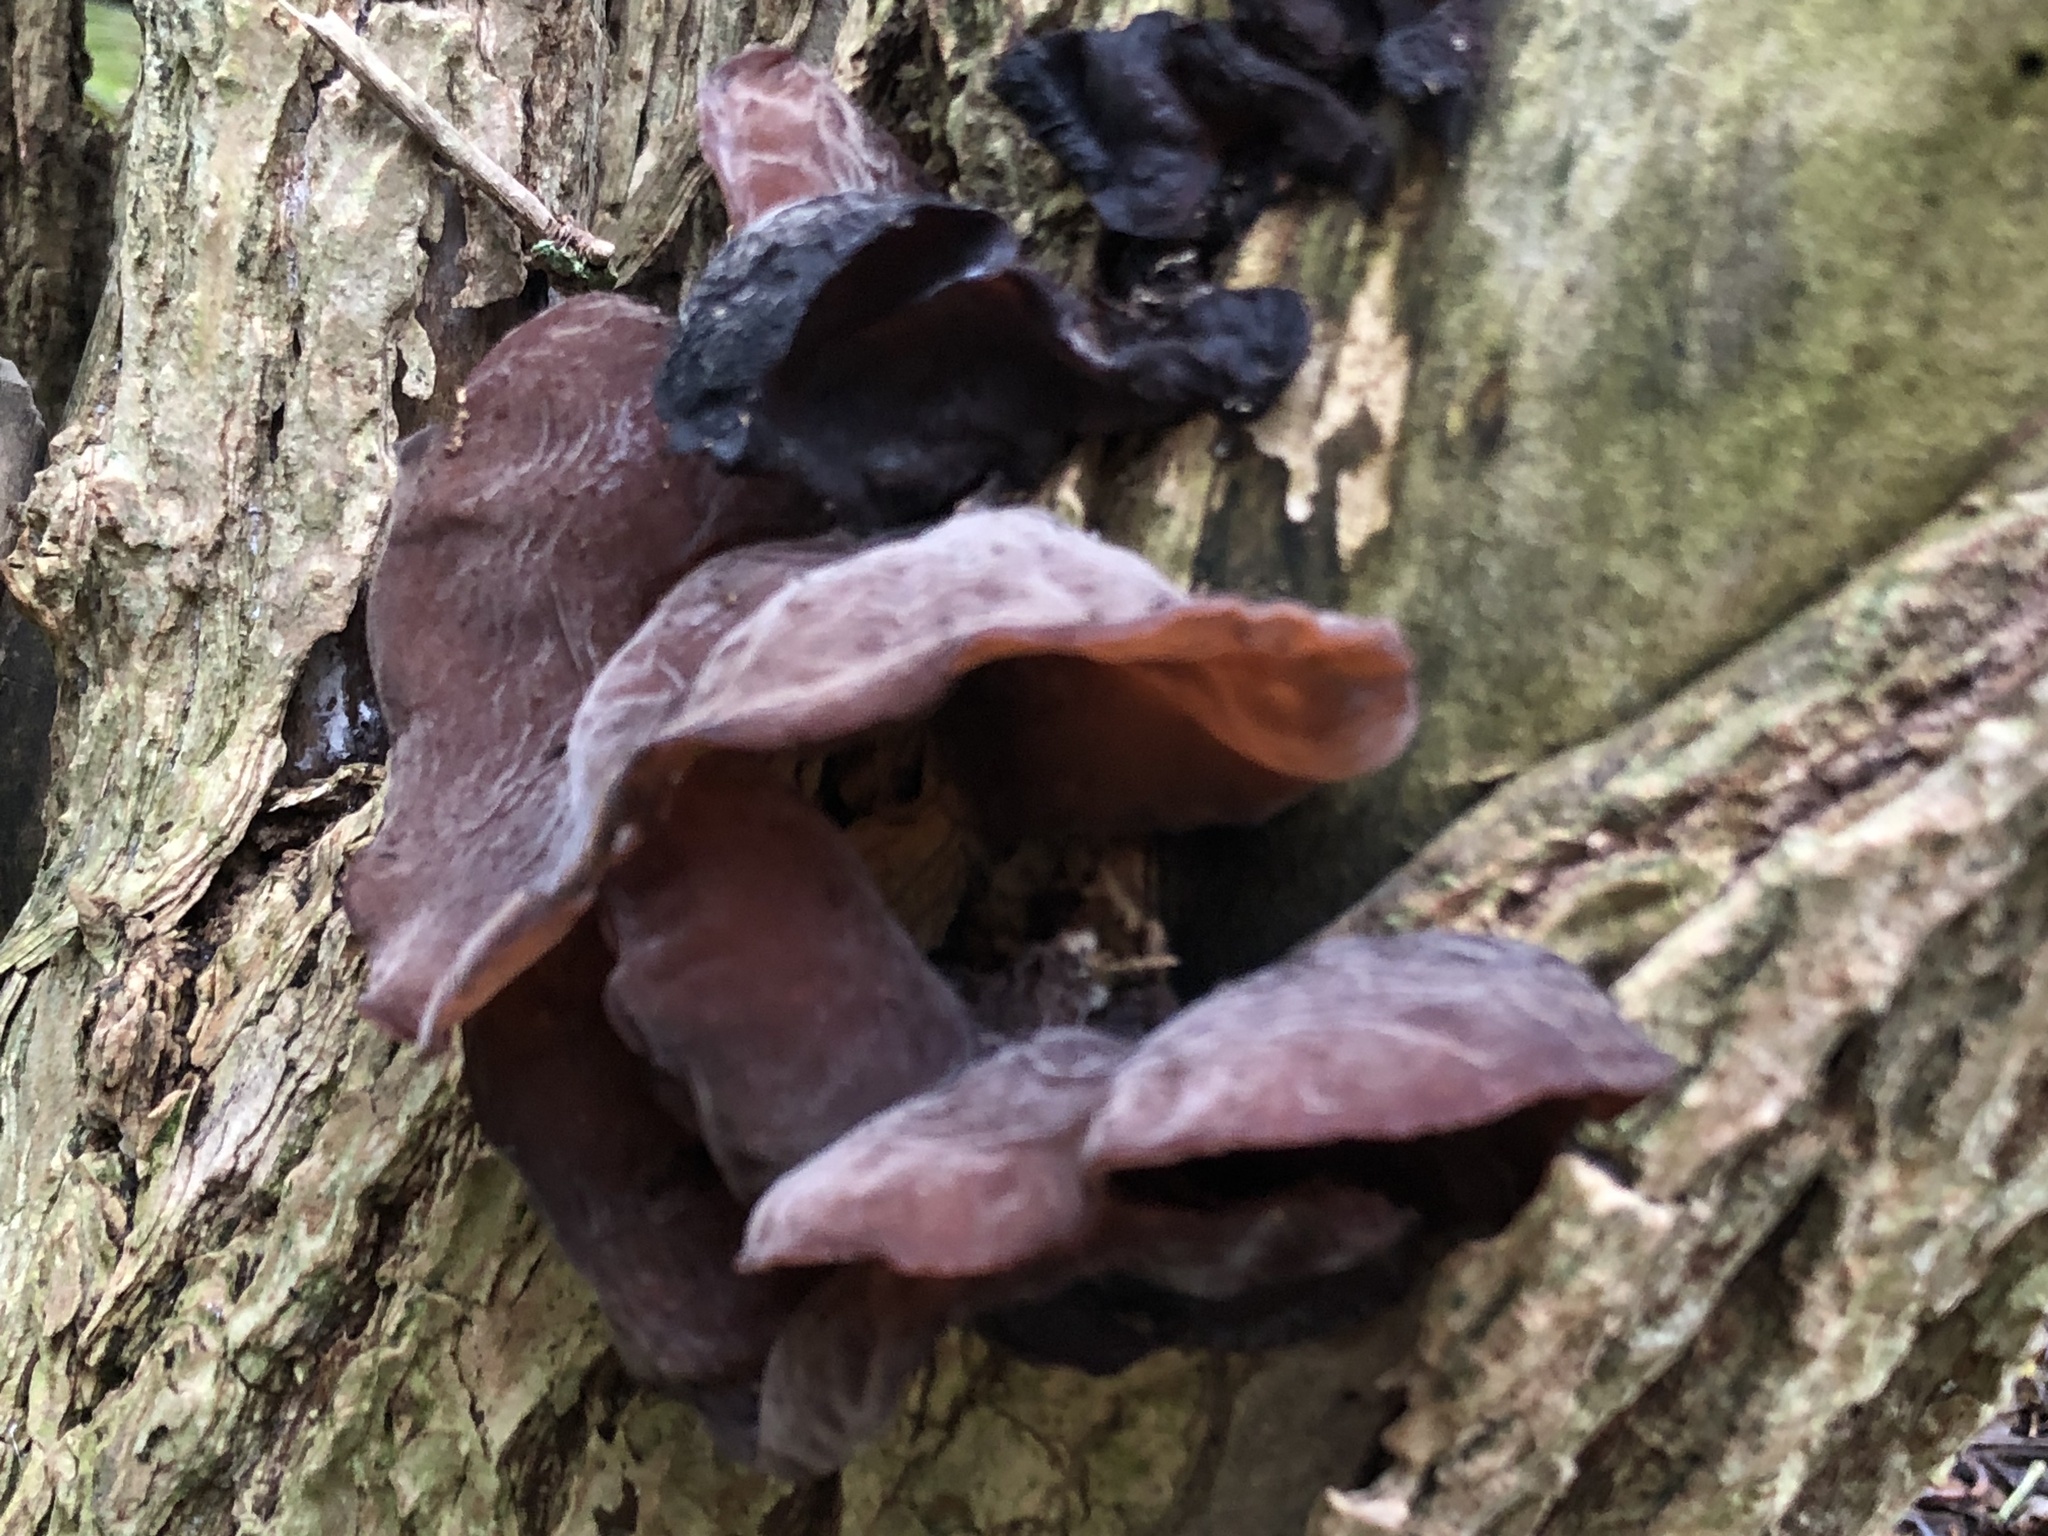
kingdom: Fungi
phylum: Basidiomycota
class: Agaricomycetes
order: Auriculariales
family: Auriculariaceae
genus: Auricularia
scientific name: Auricularia auricula-judae
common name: Jelly ear
